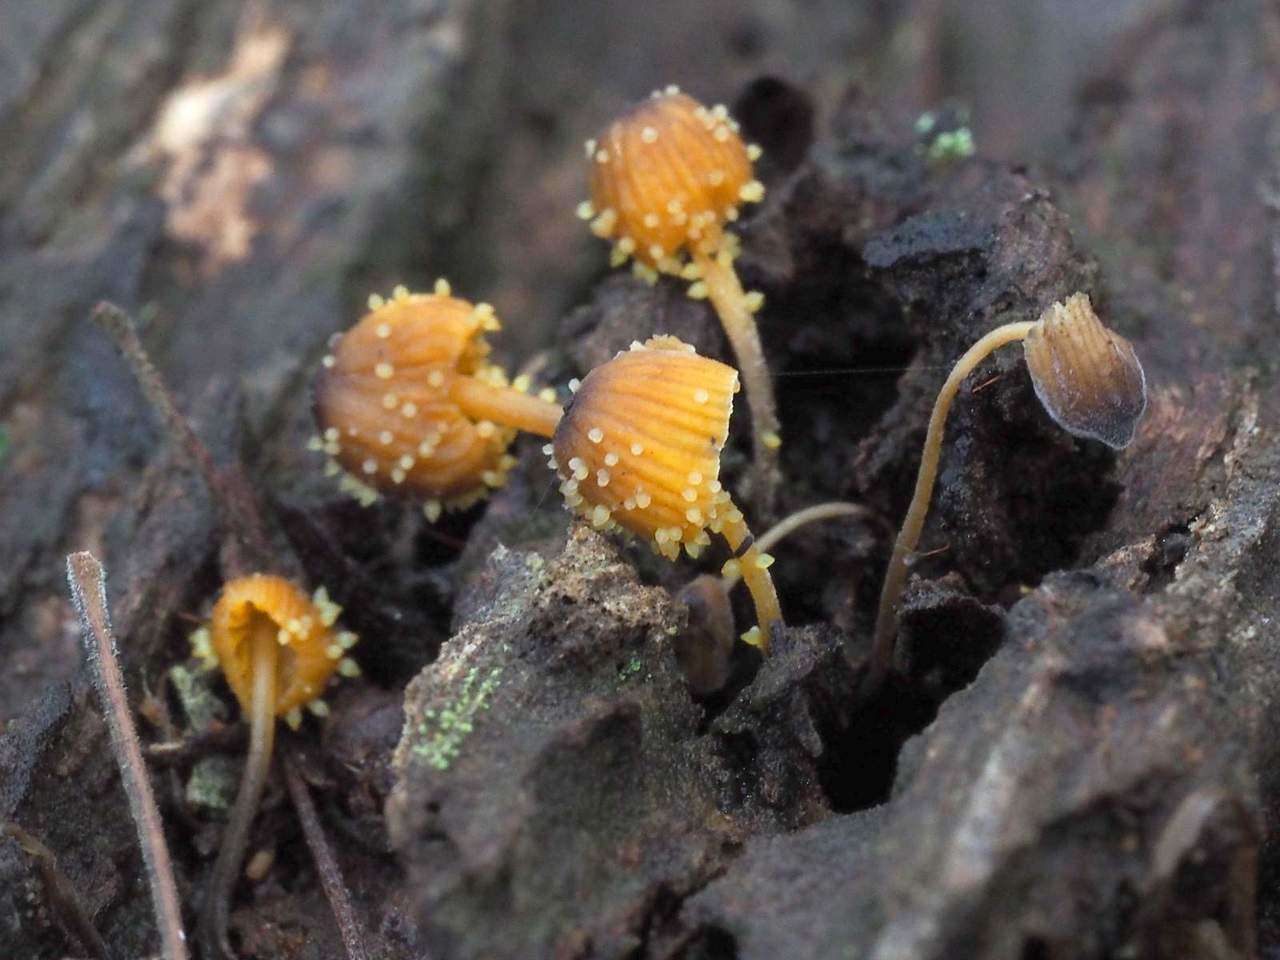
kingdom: Fungi
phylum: Ascomycota
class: Sordariomycetes
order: Hypocreales
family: Clavicipitaceae
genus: Neobarya
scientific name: Neobarya agaricicola
